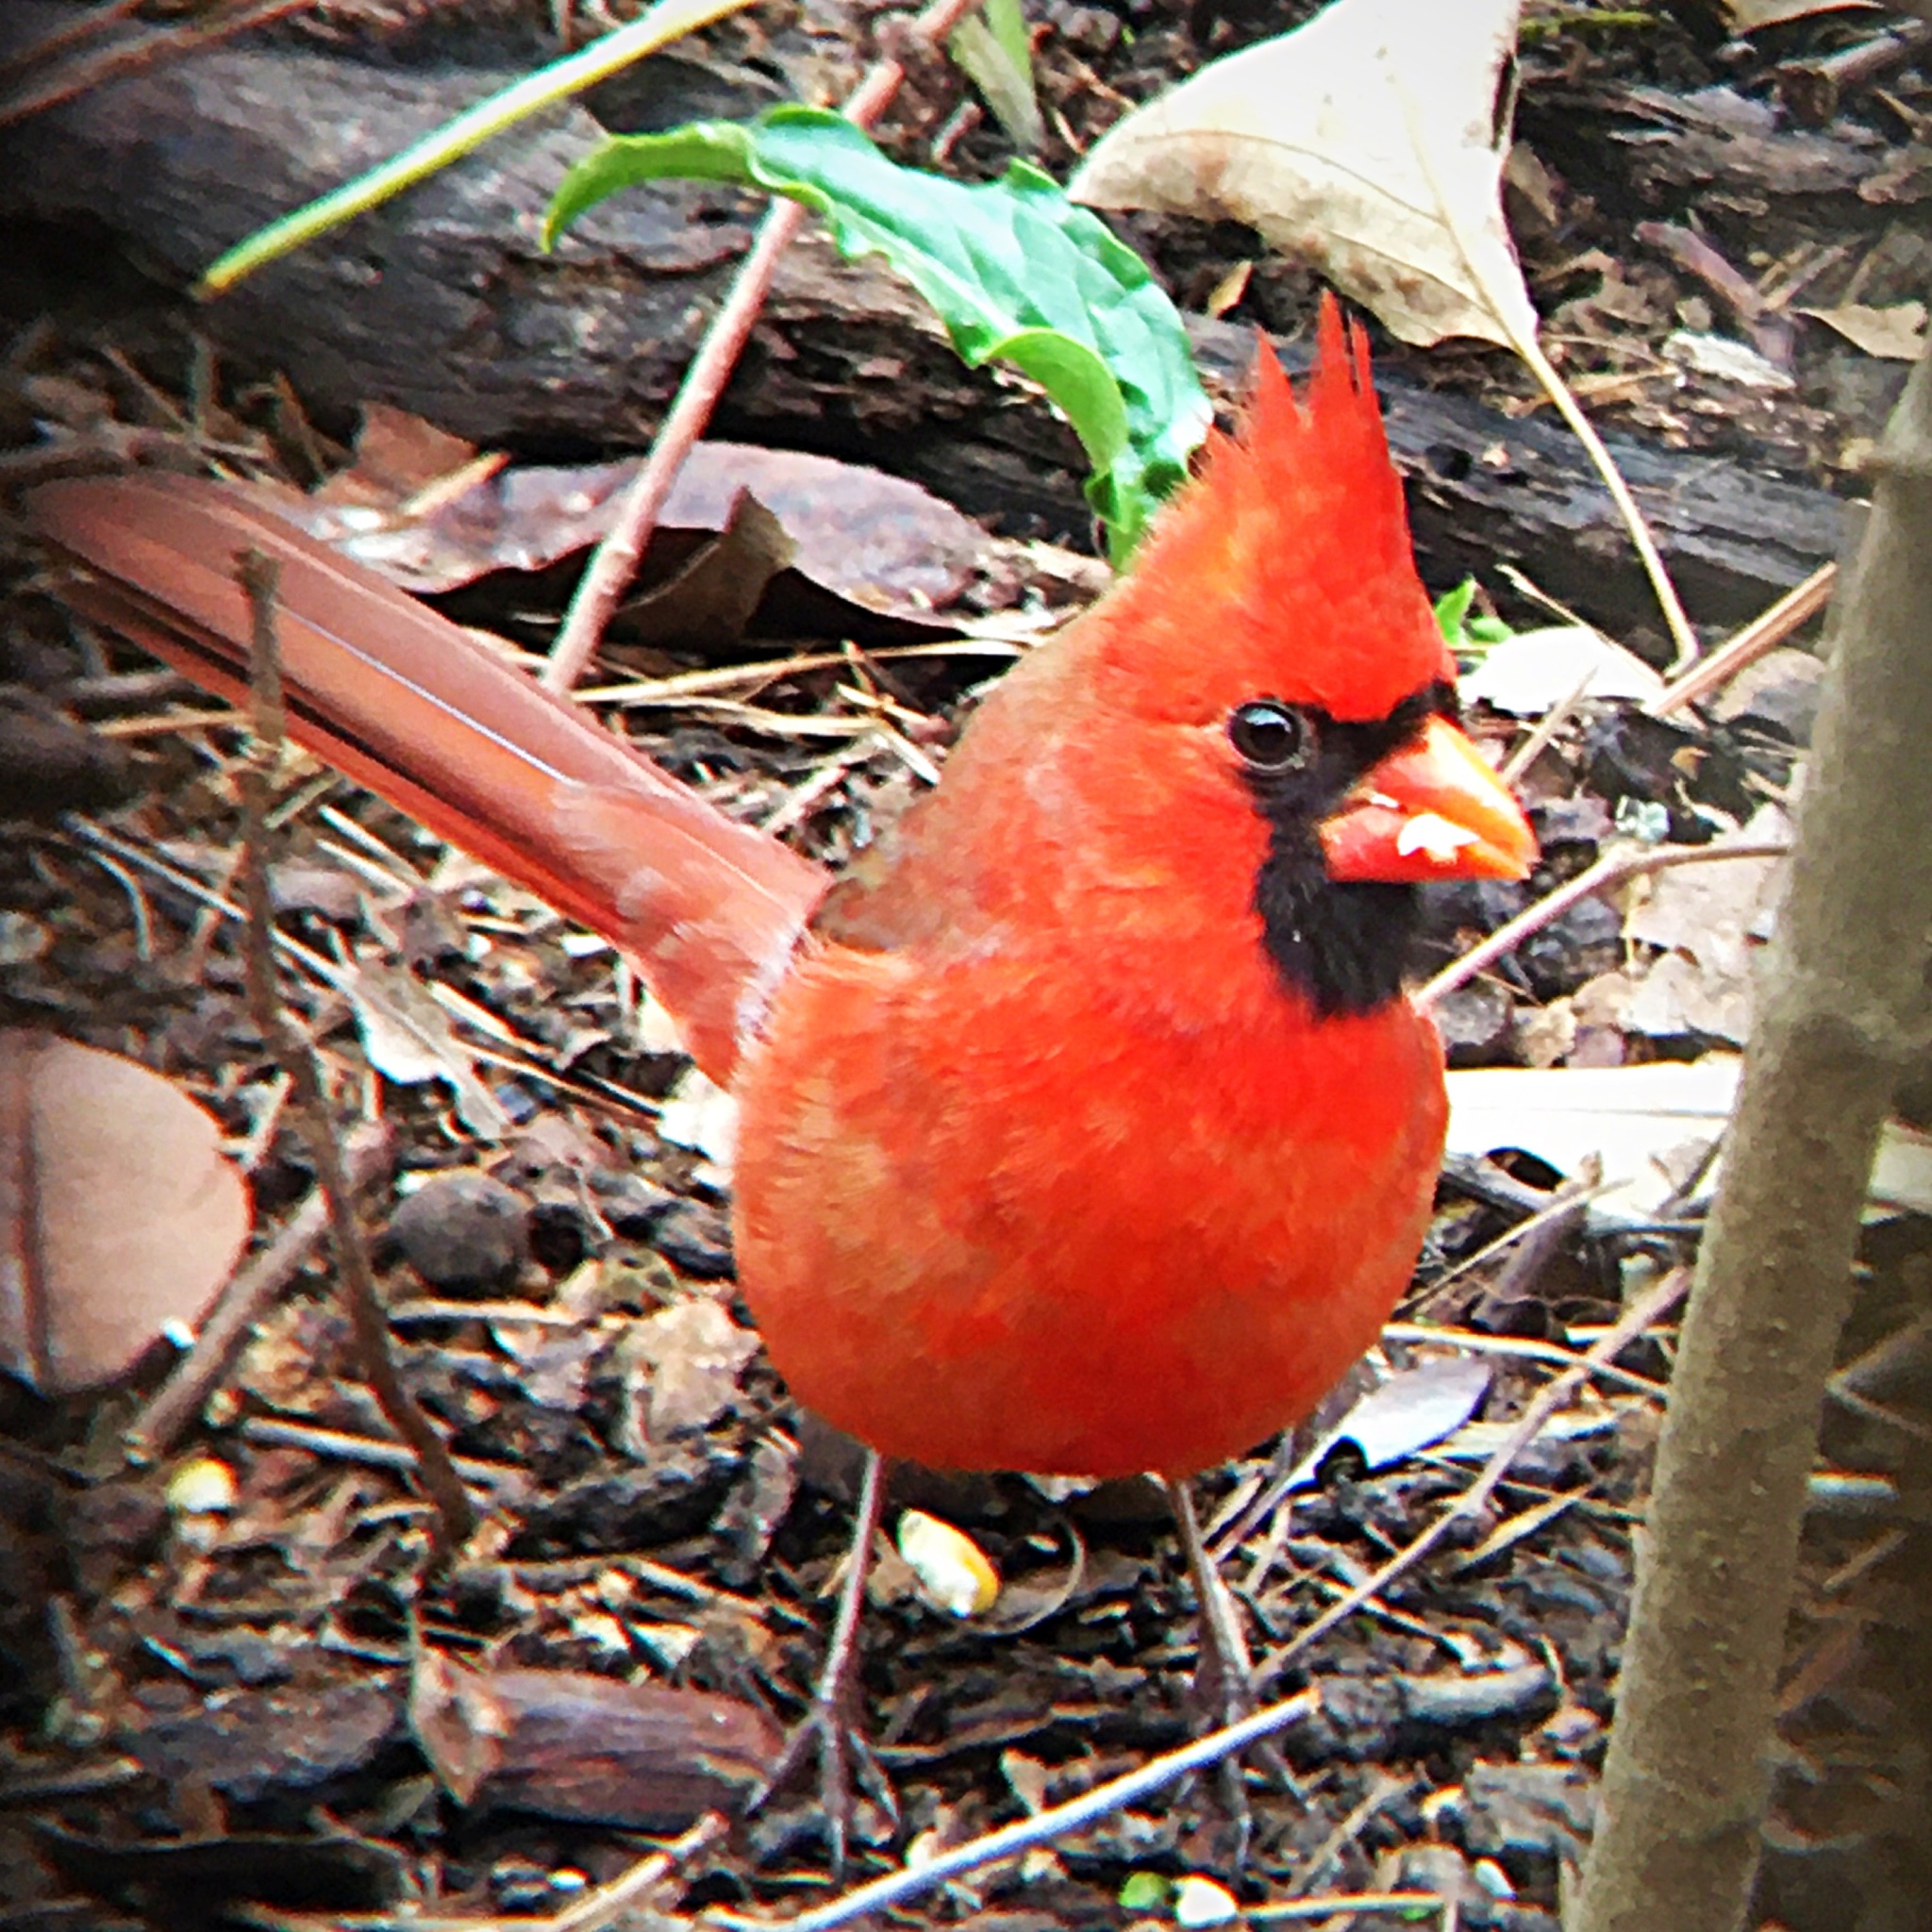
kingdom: Animalia
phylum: Chordata
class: Aves
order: Passeriformes
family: Cardinalidae
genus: Cardinalis
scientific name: Cardinalis cardinalis
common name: Northern cardinal
